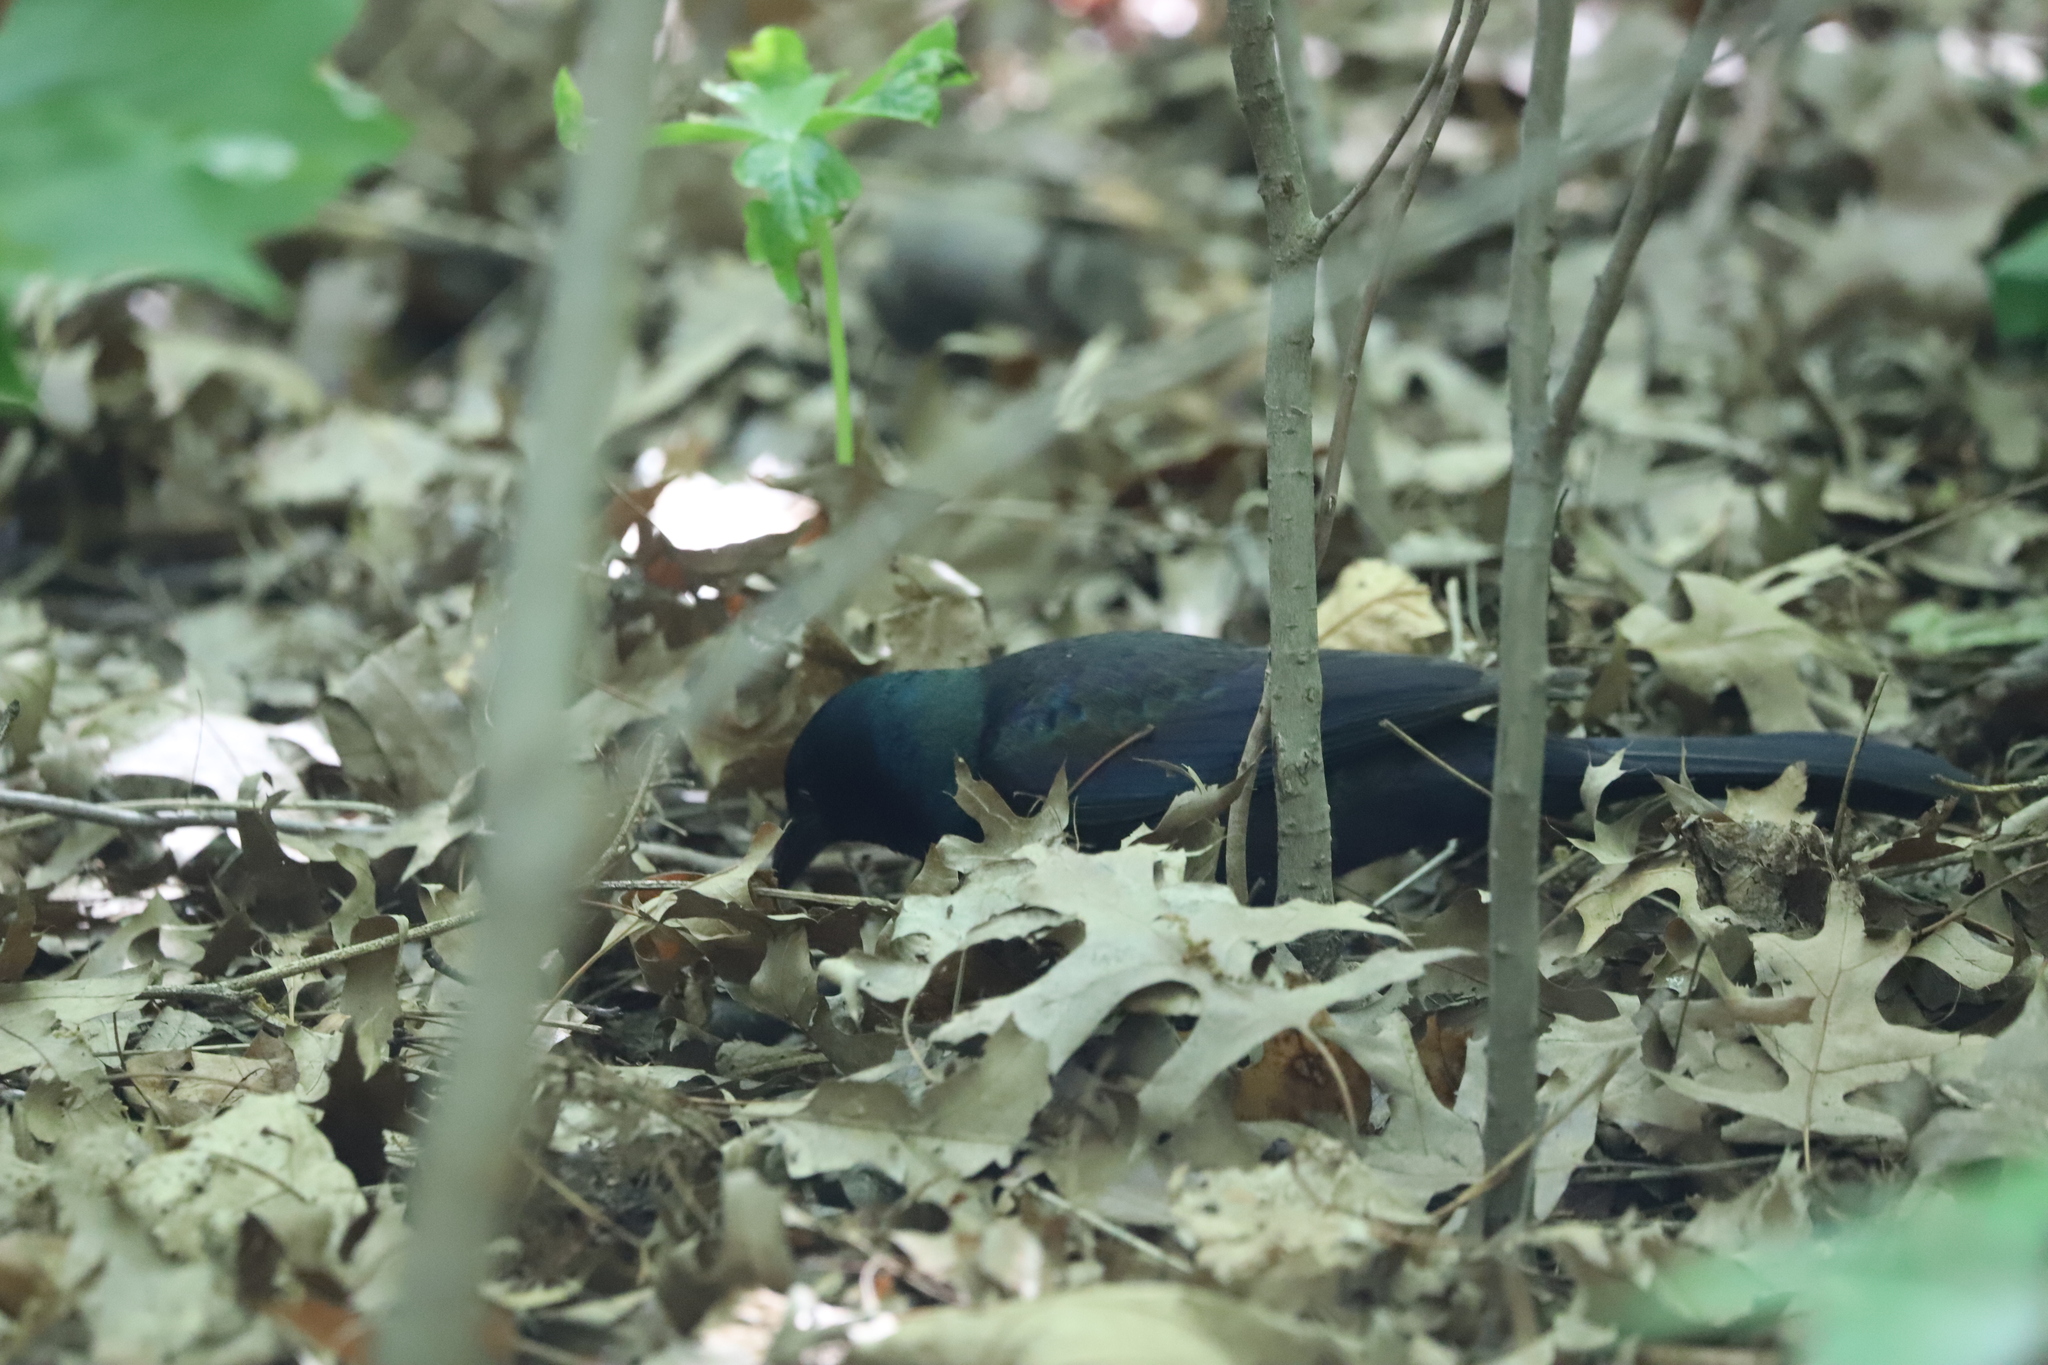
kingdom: Animalia
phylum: Chordata
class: Aves
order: Passeriformes
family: Icteridae
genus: Quiscalus
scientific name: Quiscalus quiscula
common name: Common grackle
